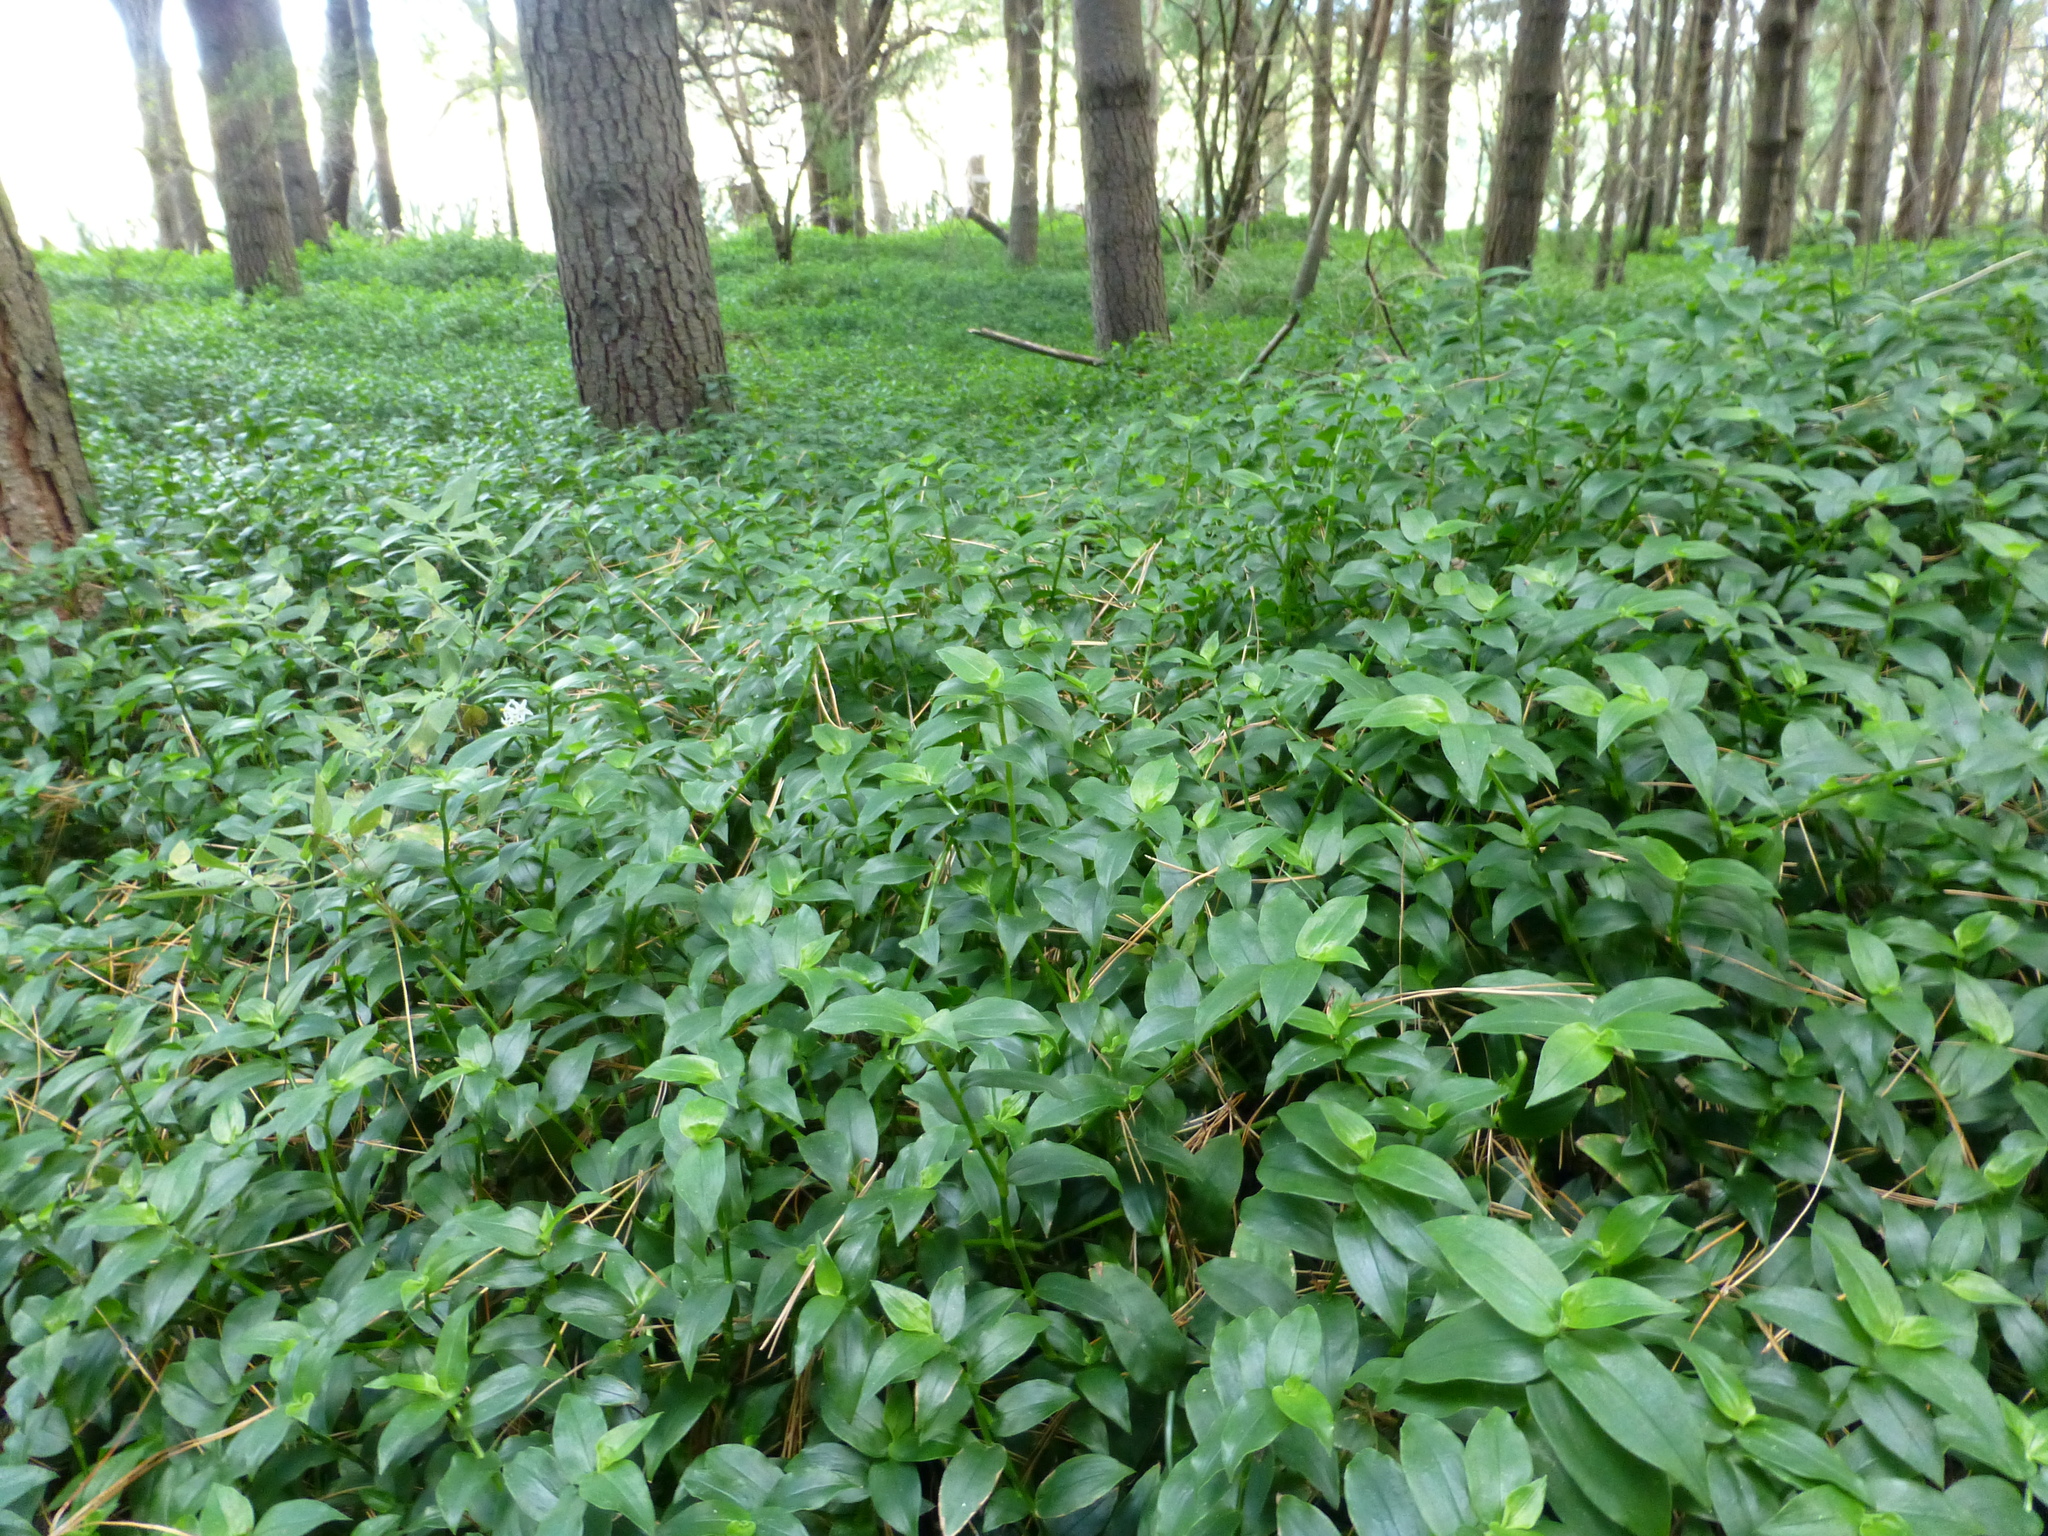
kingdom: Plantae
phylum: Tracheophyta
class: Liliopsida
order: Commelinales
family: Commelinaceae
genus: Tradescantia
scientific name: Tradescantia fluminensis
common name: Wandering-jew
